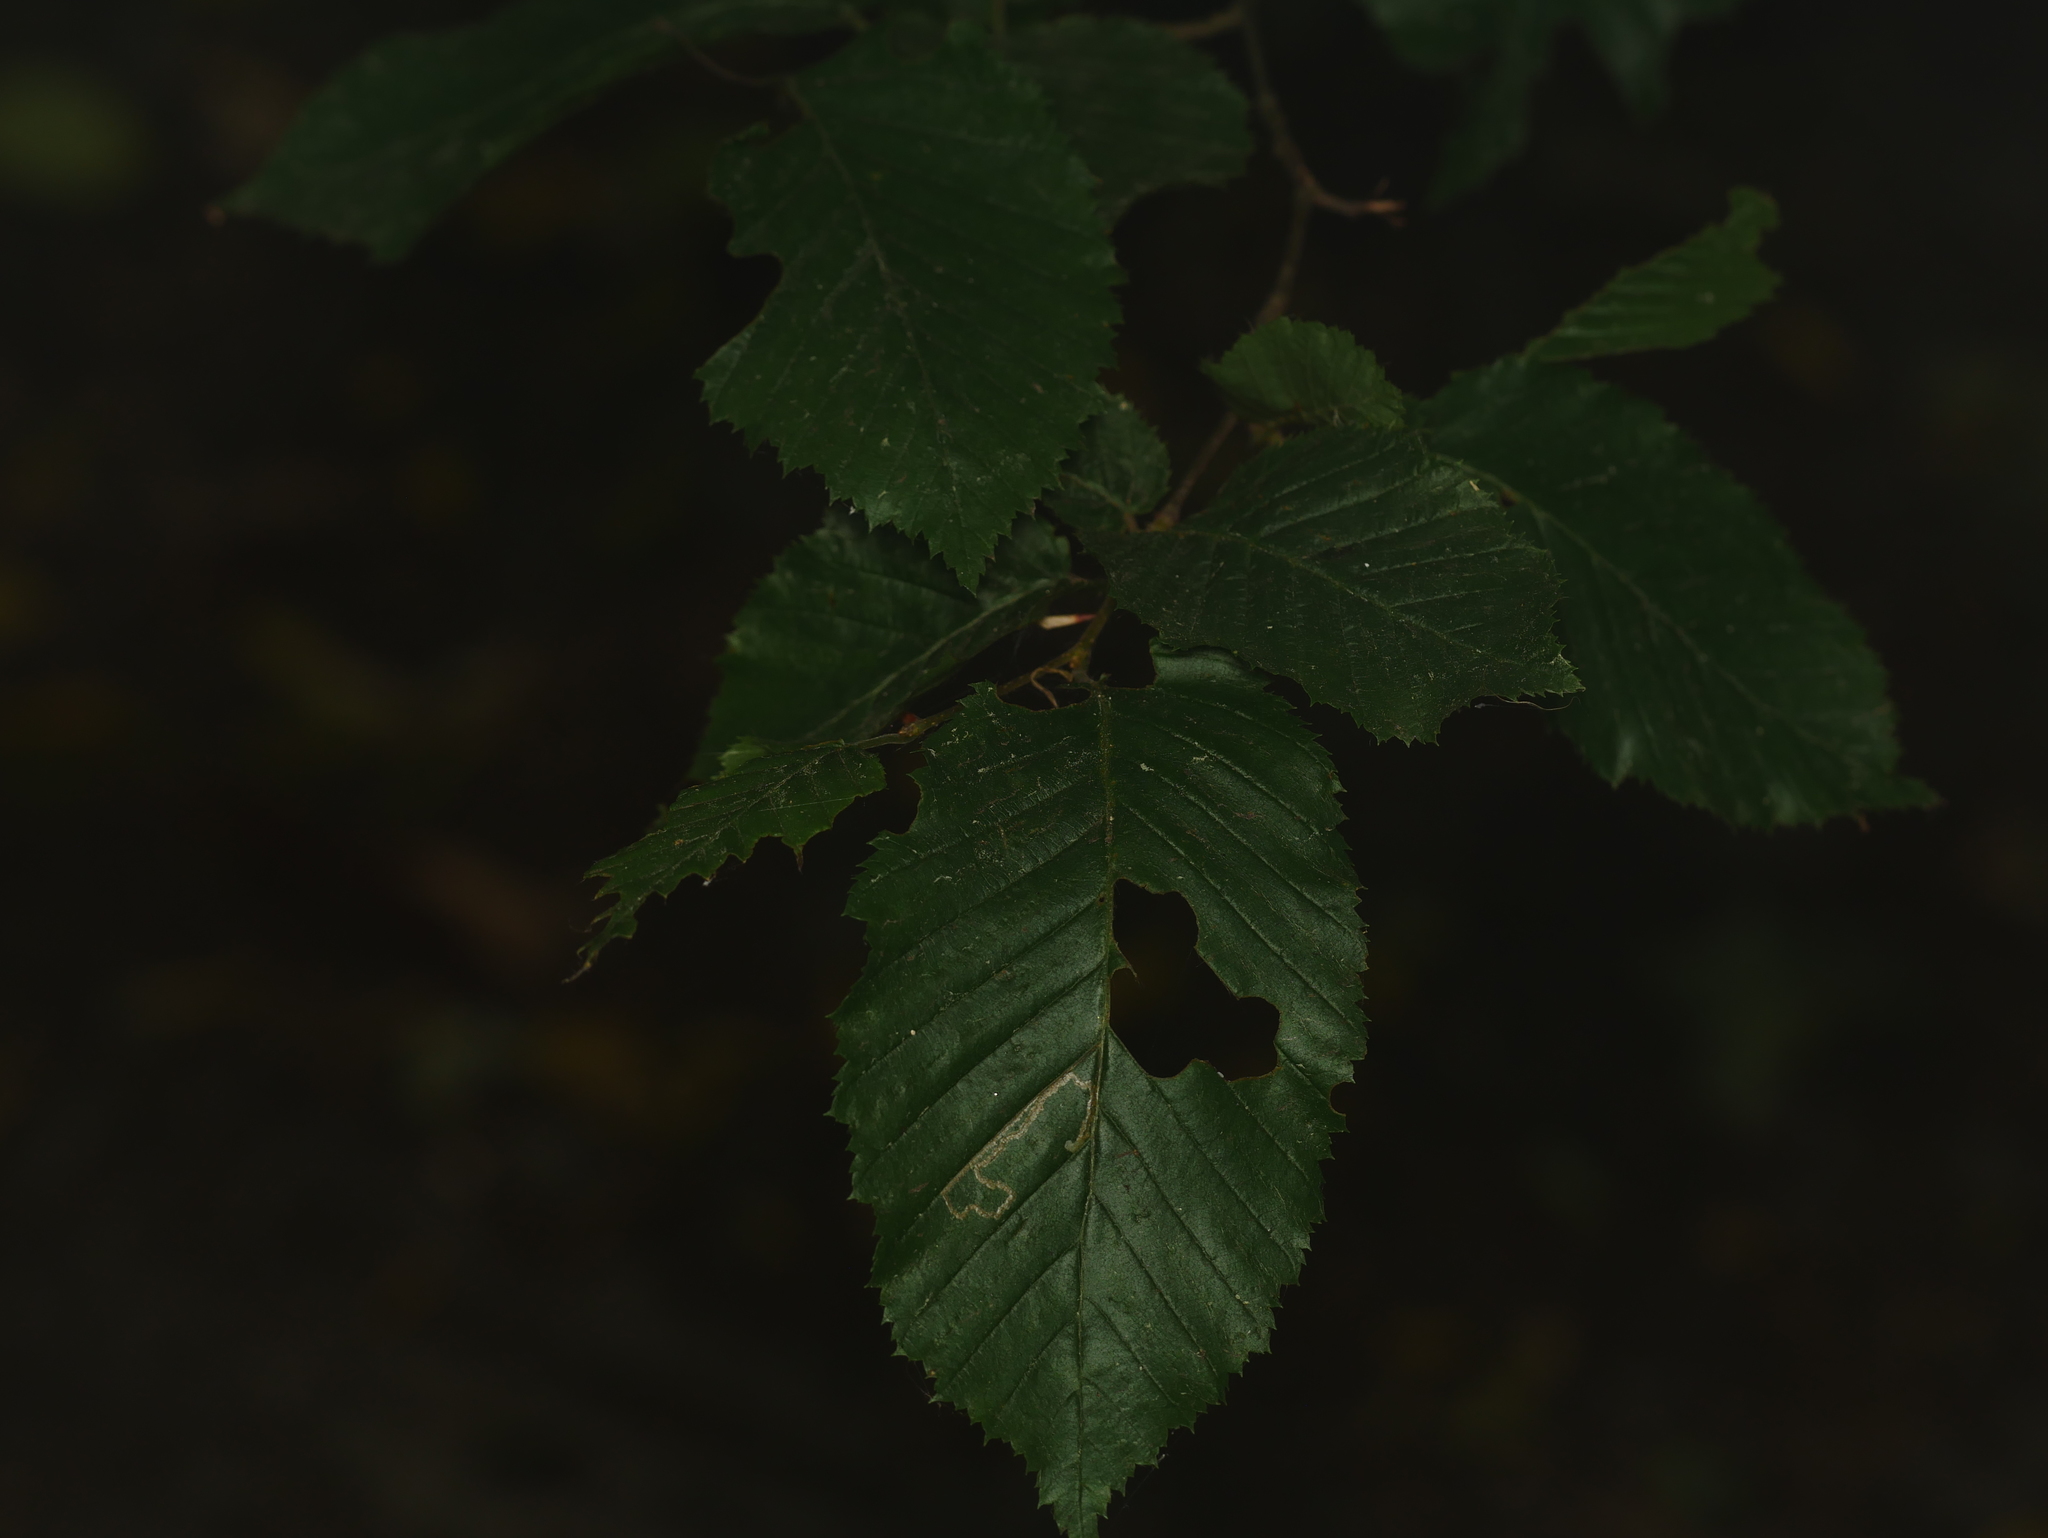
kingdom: Plantae
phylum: Tracheophyta
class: Magnoliopsida
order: Fagales
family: Betulaceae
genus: Carpinus
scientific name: Carpinus betulus
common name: Hornbeam
